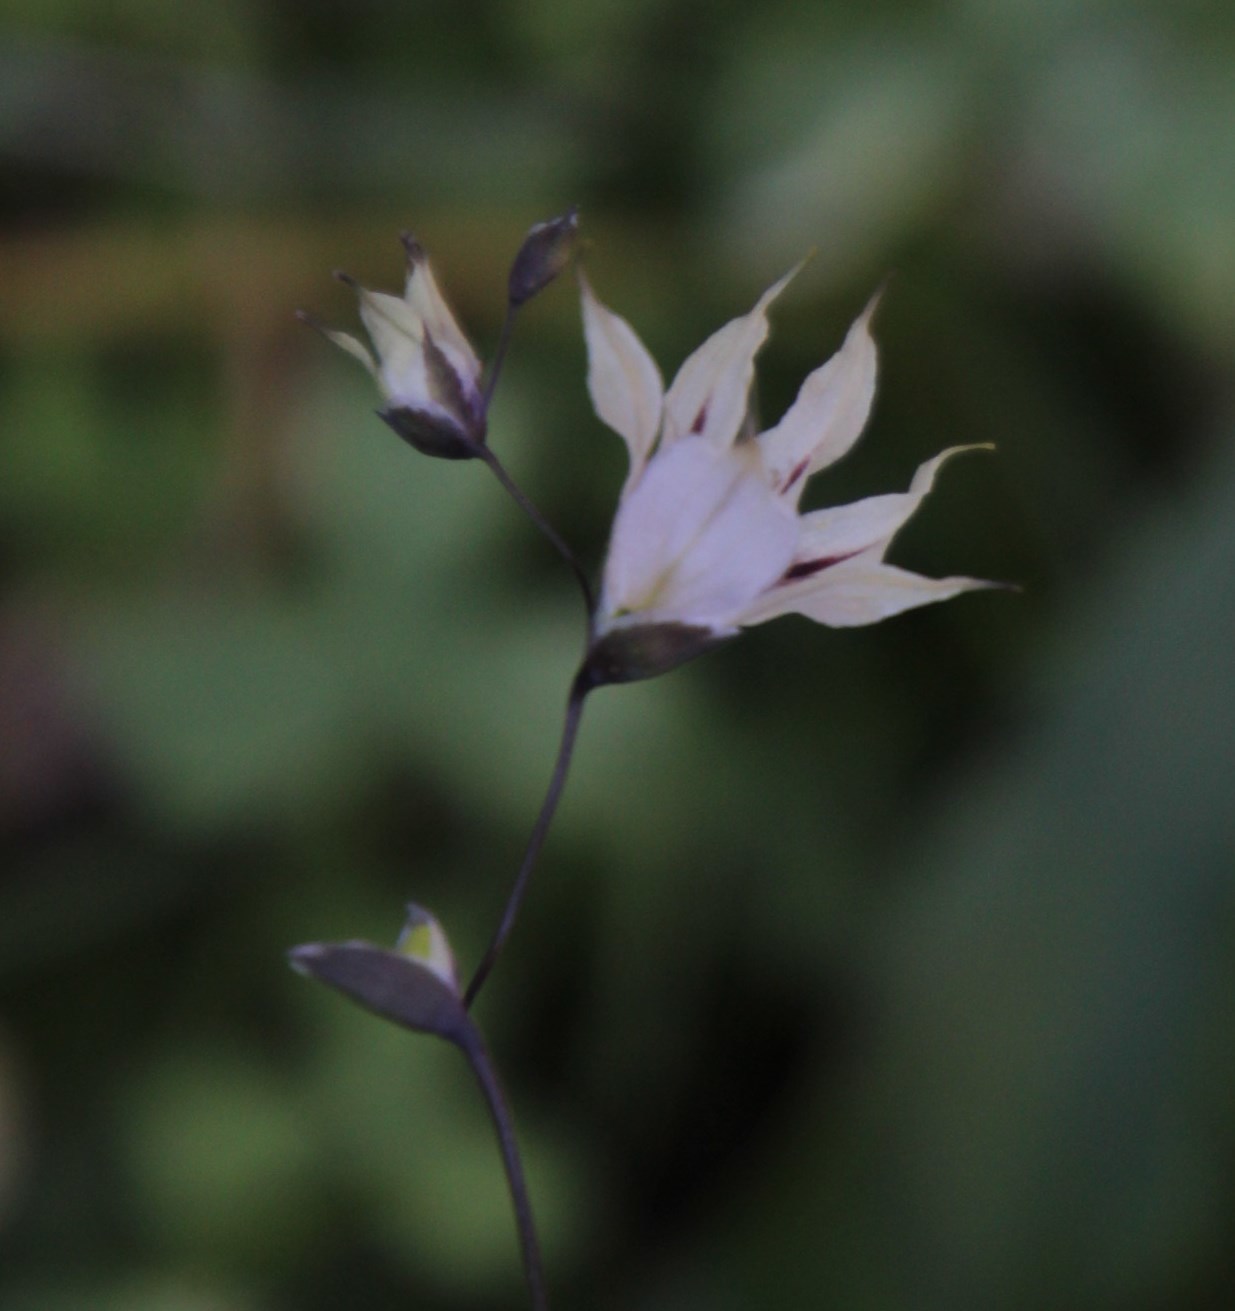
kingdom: Plantae
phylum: Tracheophyta
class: Liliopsida
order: Asparagales
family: Iridaceae
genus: Melasphaerula
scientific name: Melasphaerula graminea
